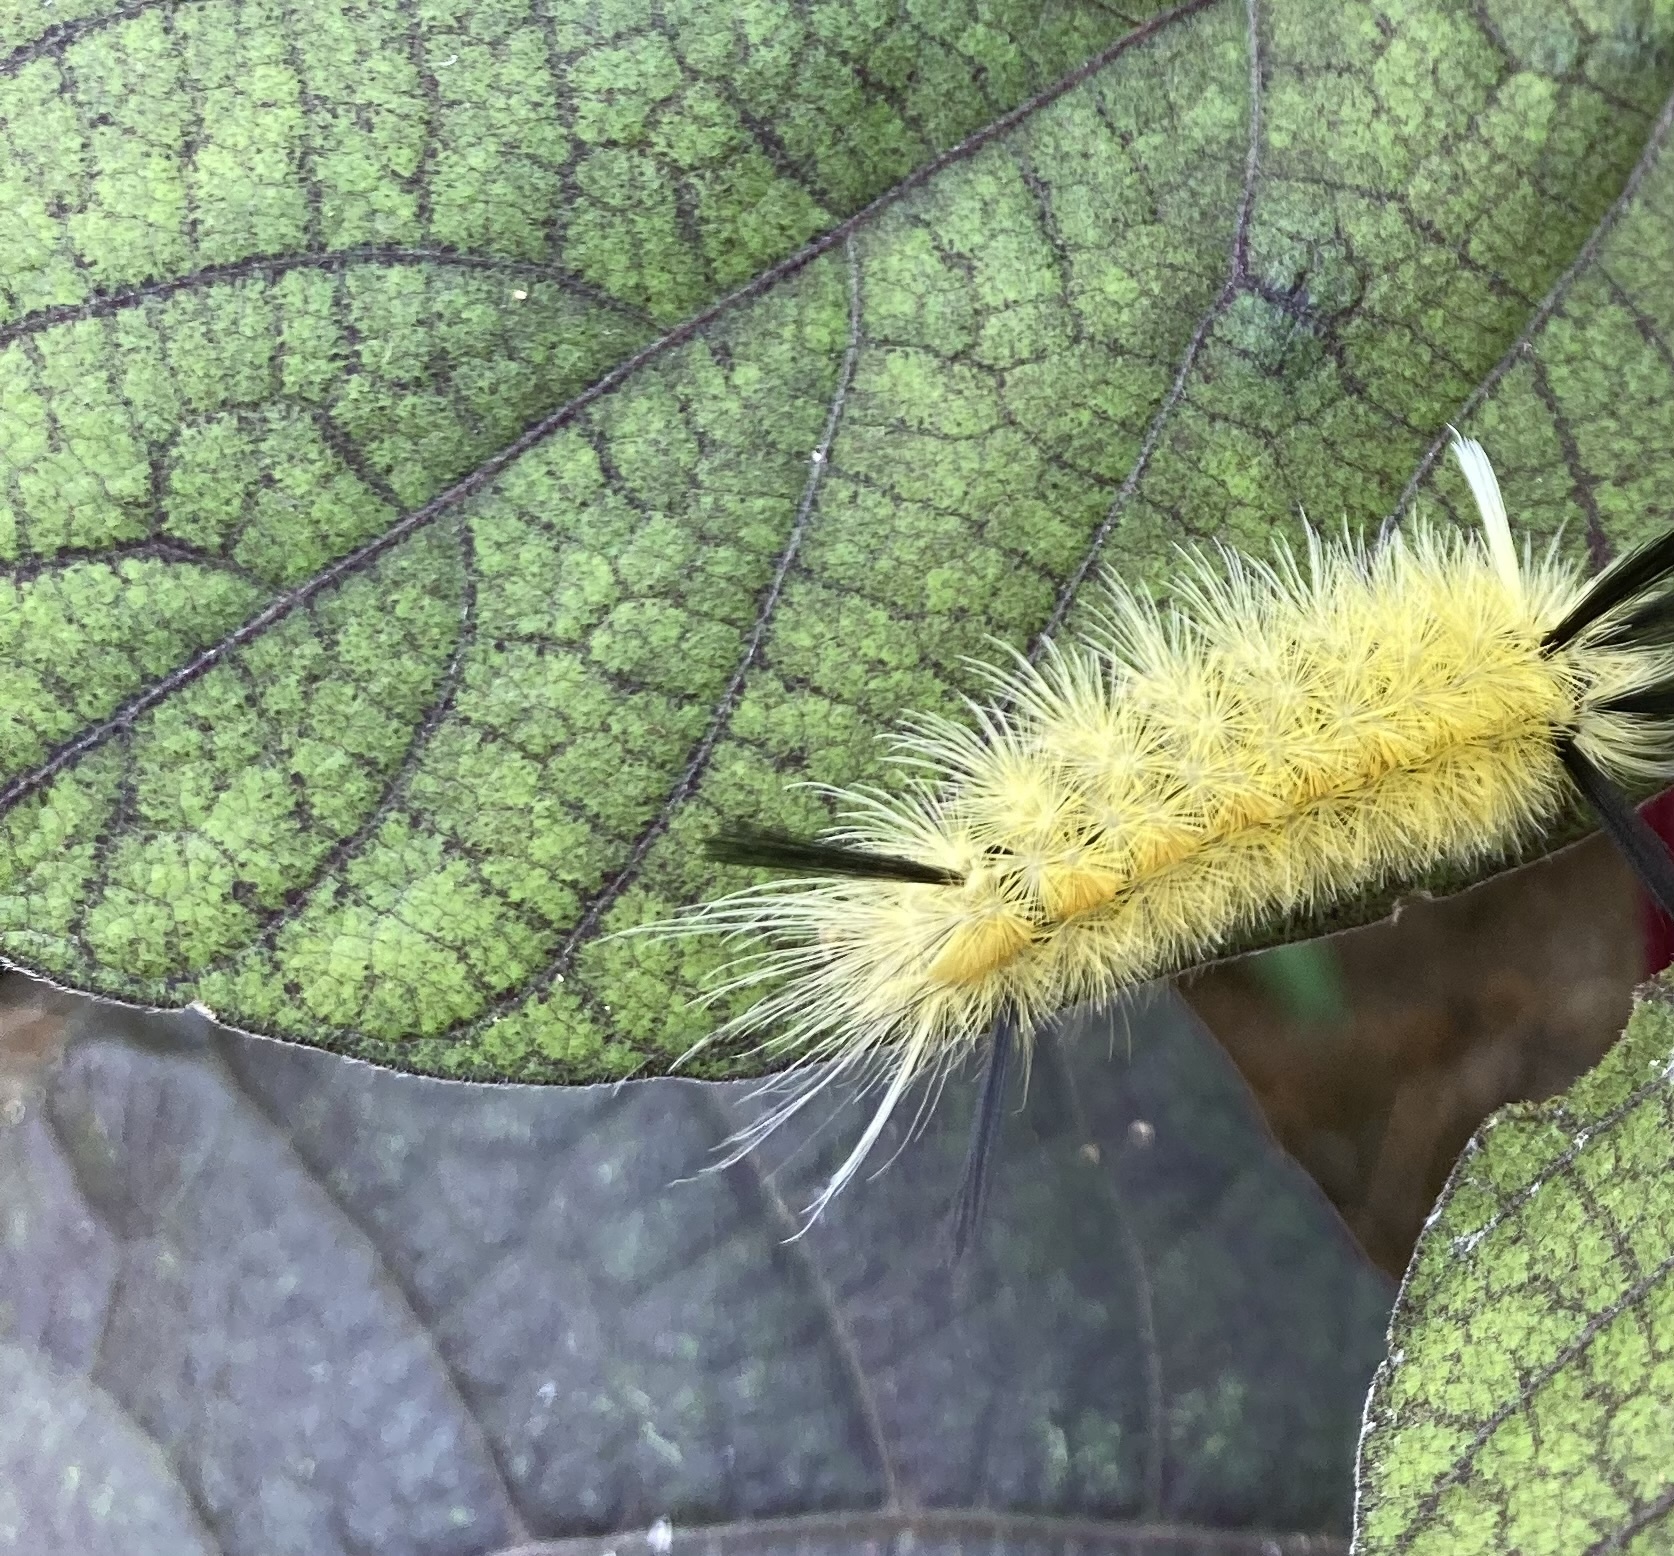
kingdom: Animalia
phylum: Arthropoda
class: Insecta
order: Lepidoptera
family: Erebidae
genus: Halysidota
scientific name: Halysidota tessellaris
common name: Banded tussock moth
